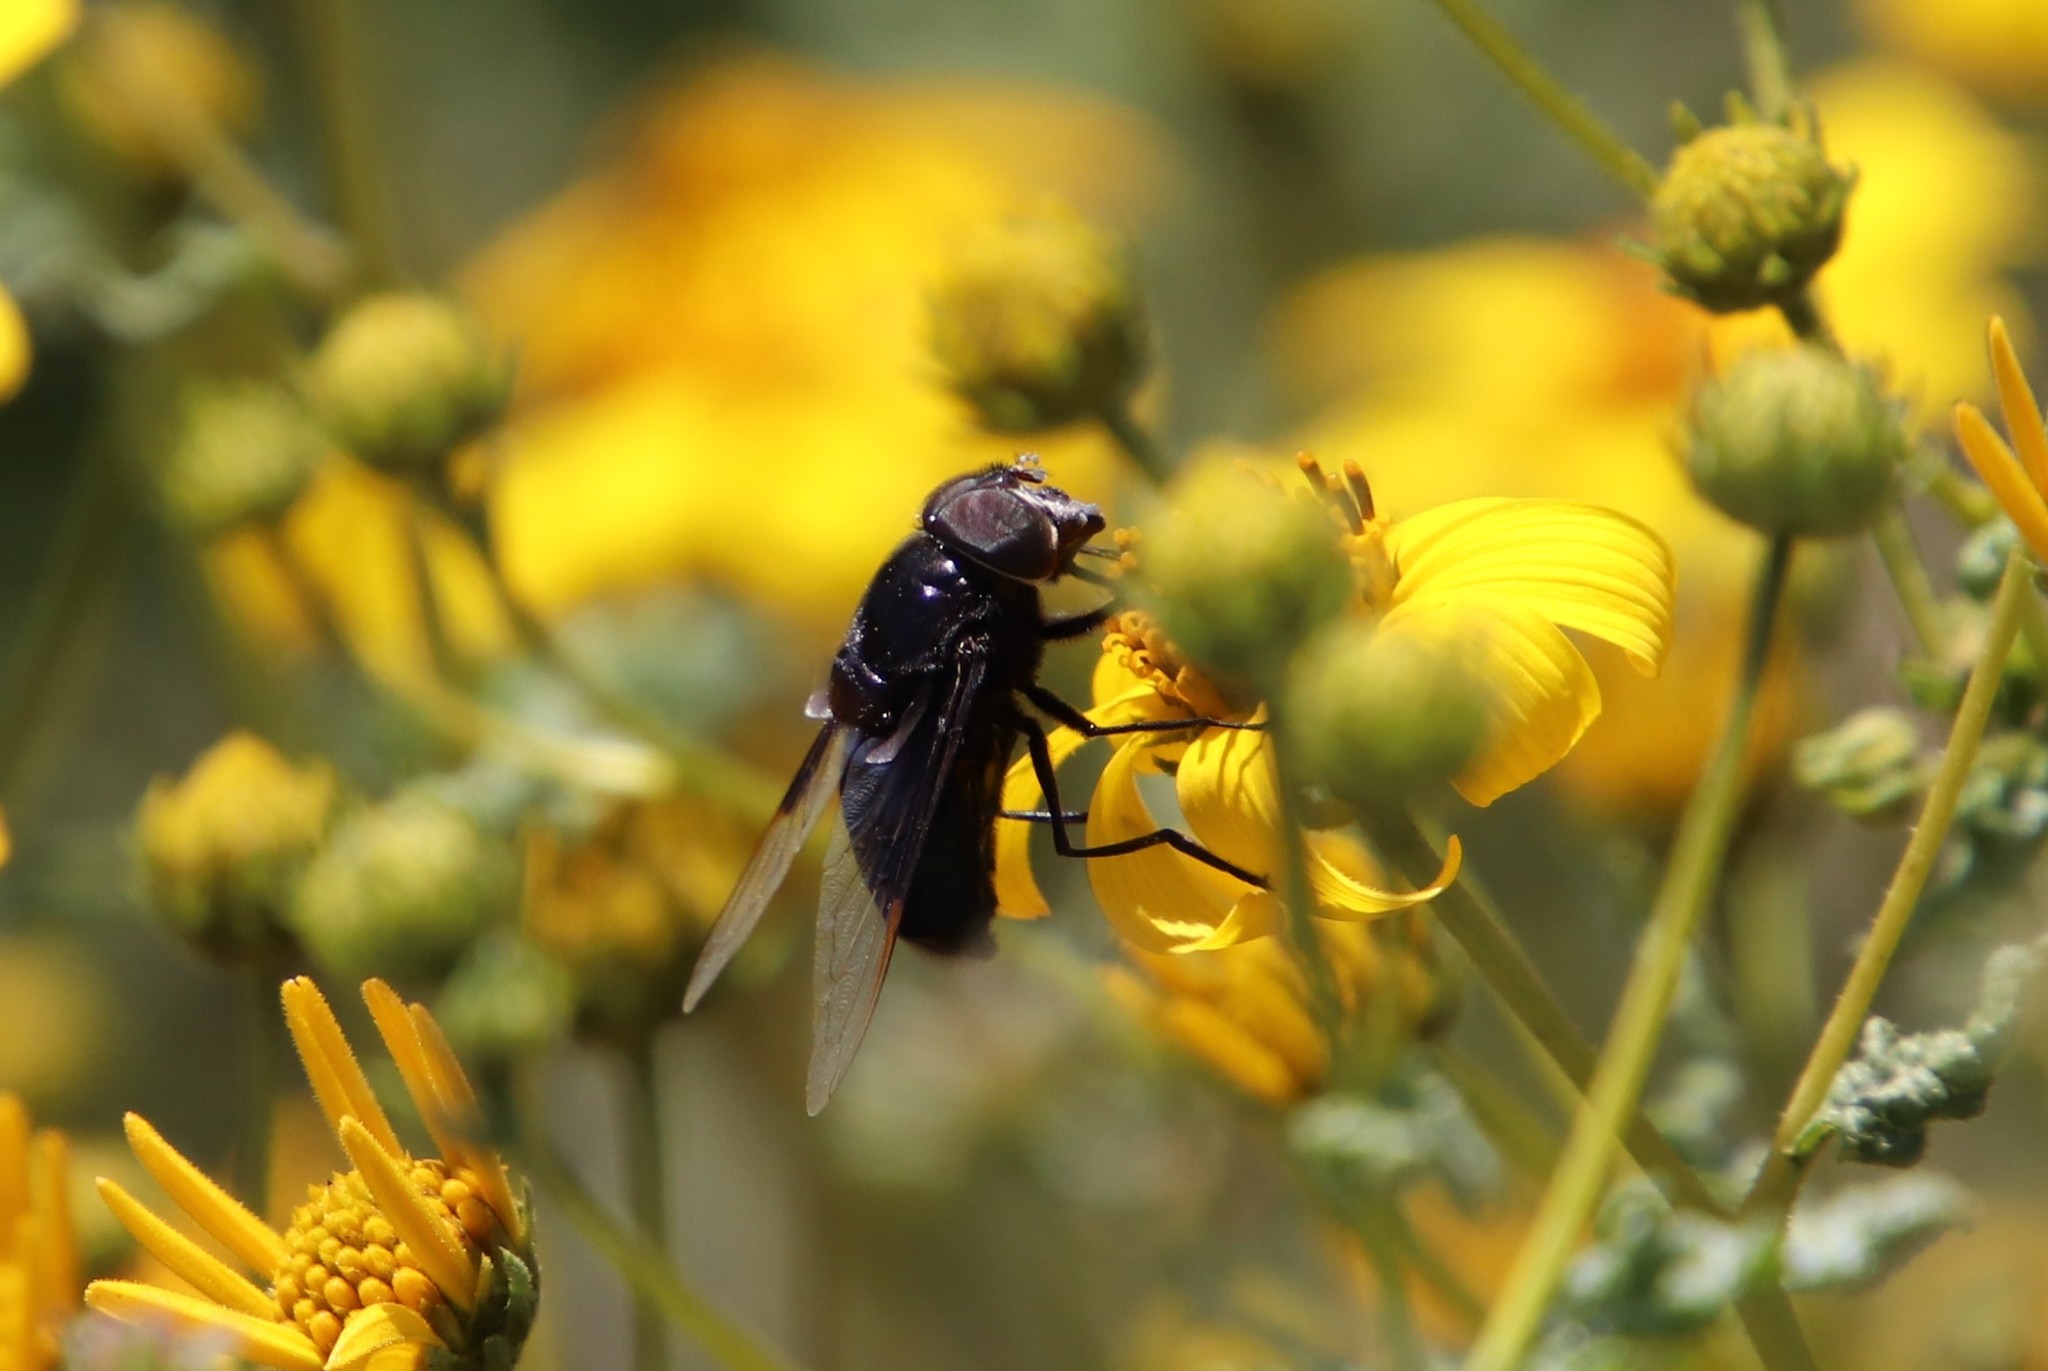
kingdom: Animalia
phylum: Arthropoda
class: Insecta
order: Diptera
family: Syrphidae
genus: Copestylum
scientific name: Copestylum mexicanum
